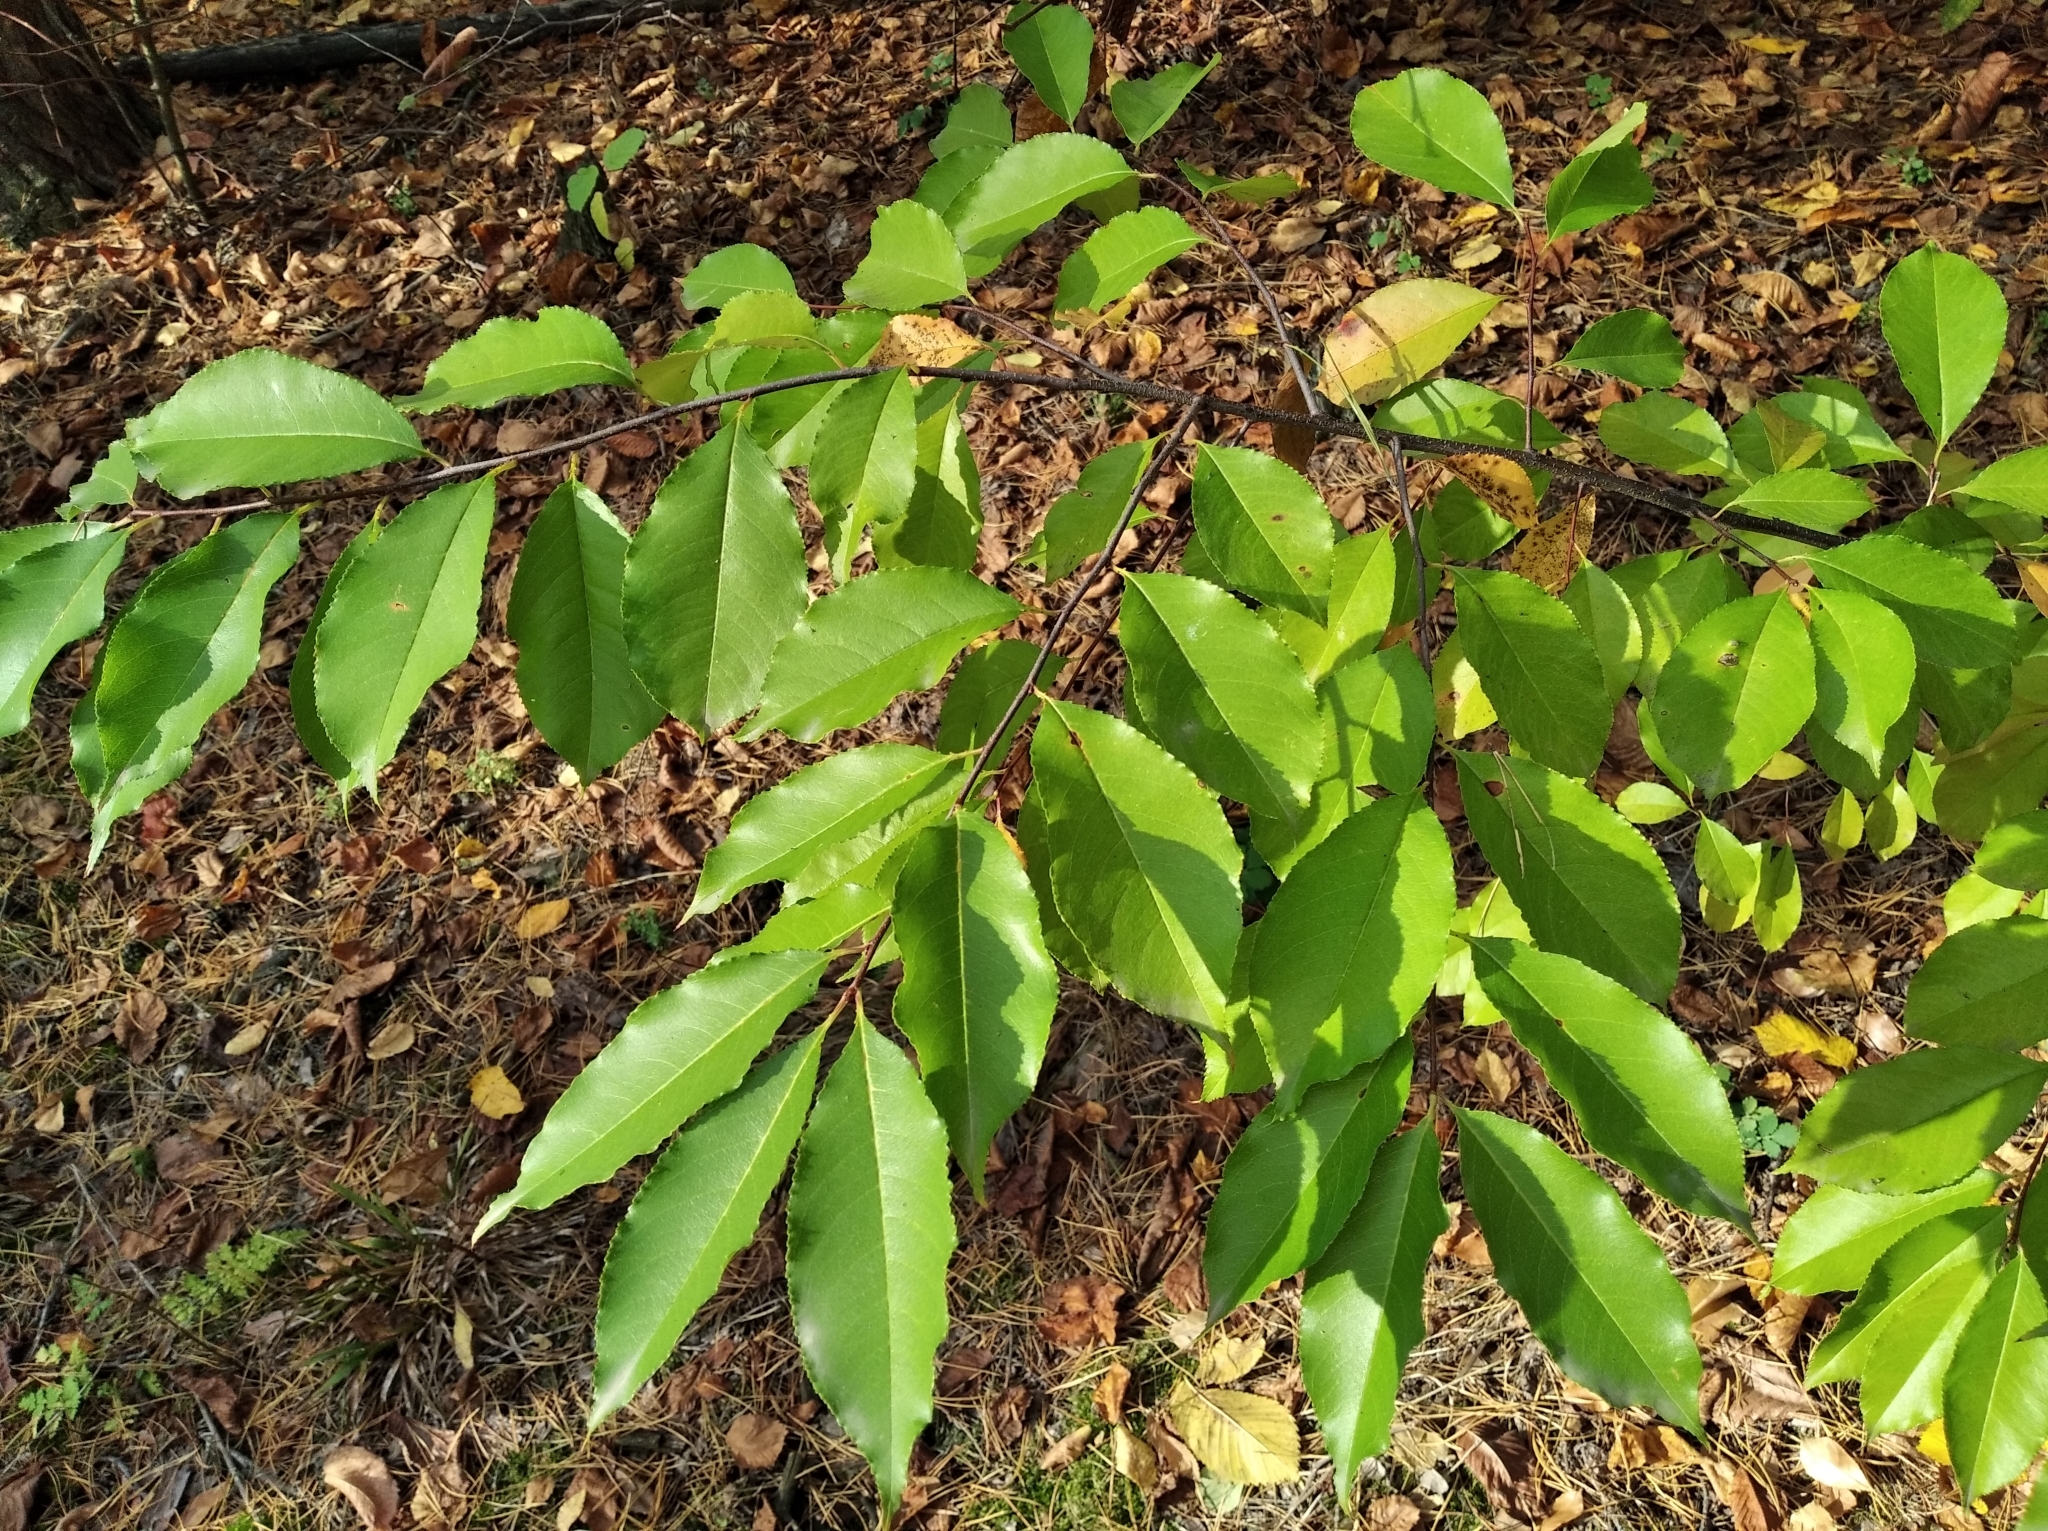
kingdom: Plantae
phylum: Tracheophyta
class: Magnoliopsida
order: Rosales
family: Rosaceae
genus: Prunus
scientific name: Prunus serotina
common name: Black cherry
